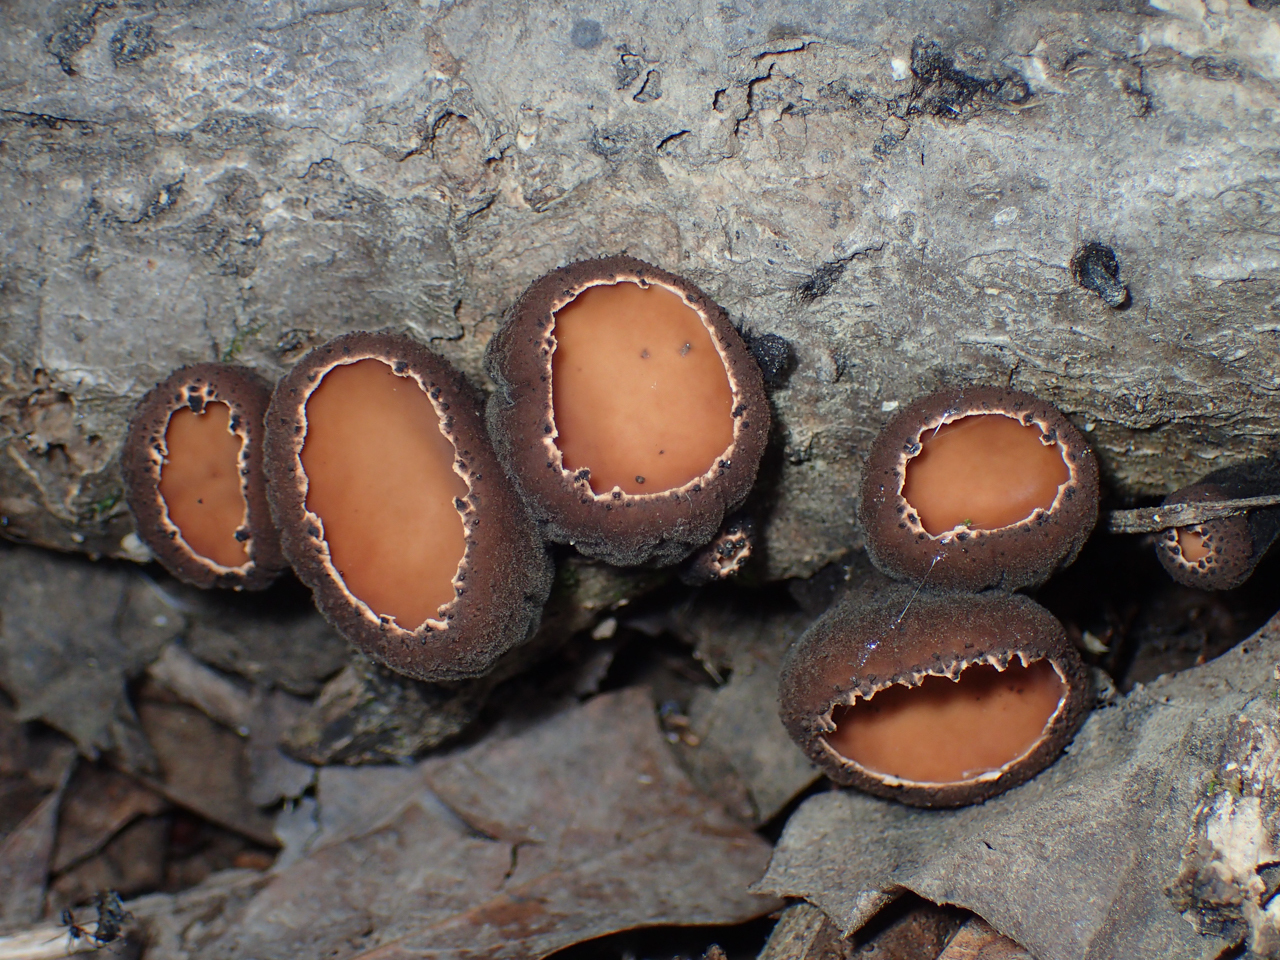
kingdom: Fungi
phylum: Ascomycota
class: Pezizomycetes
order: Pezizales
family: Sarcosomataceae
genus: Galiella
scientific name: Galiella rufa
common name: Hairy rubber cup
